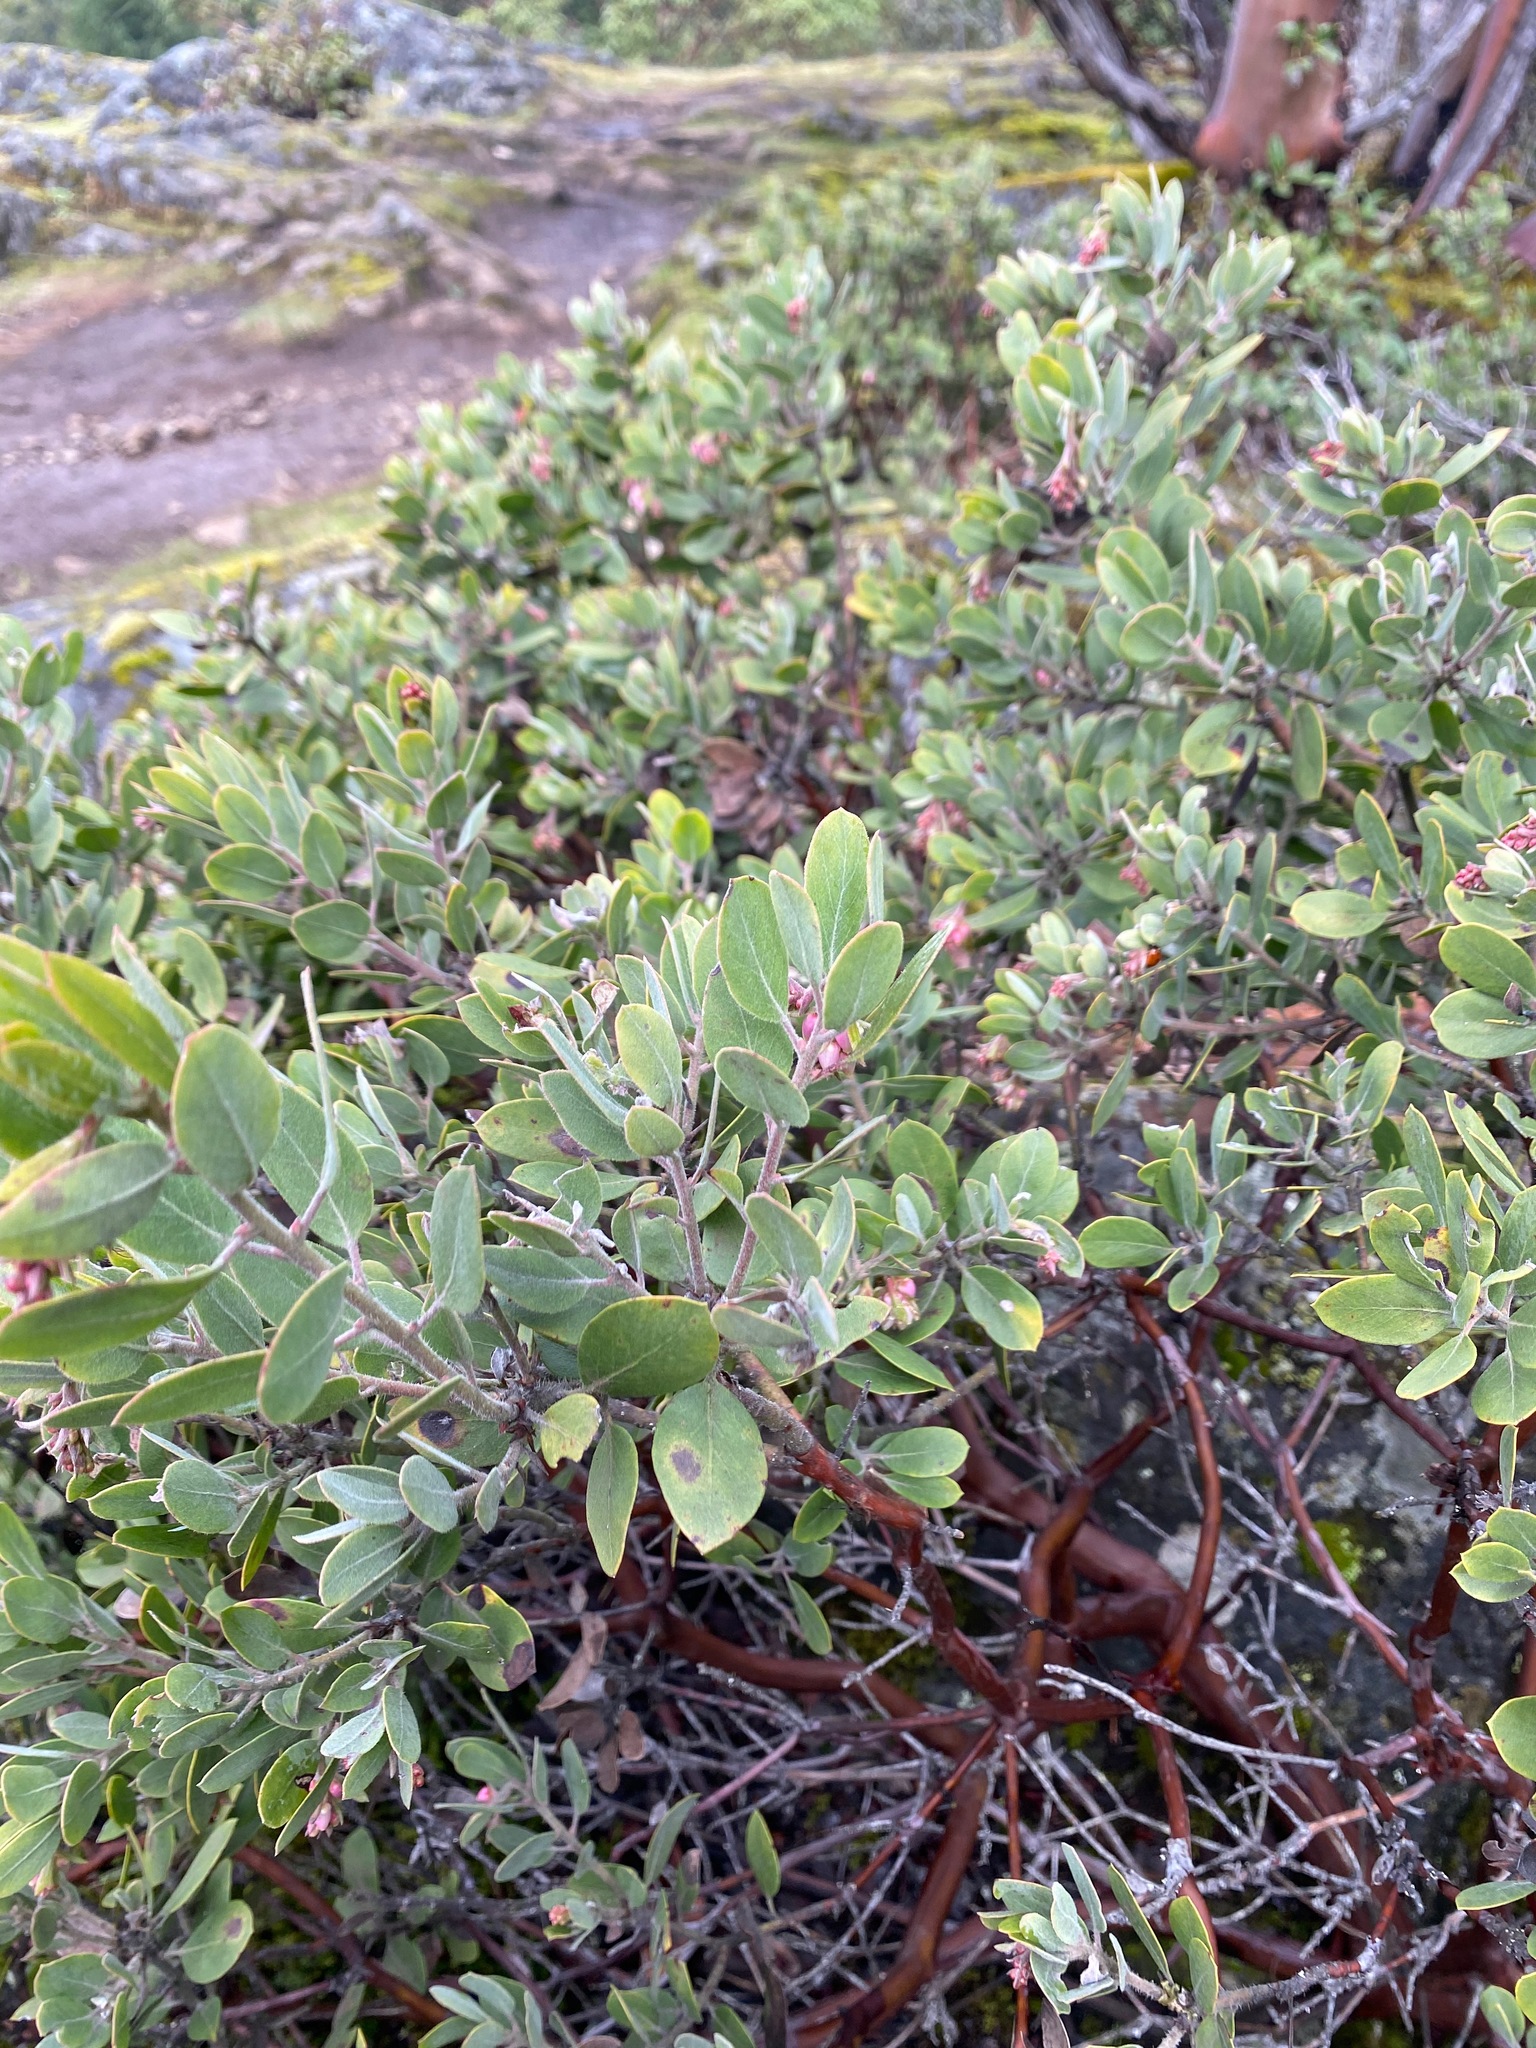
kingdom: Plantae
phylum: Tracheophyta
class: Magnoliopsida
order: Ericales
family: Ericaceae
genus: Arctostaphylos
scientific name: Arctostaphylos columbiana
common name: Bristly bearberry
